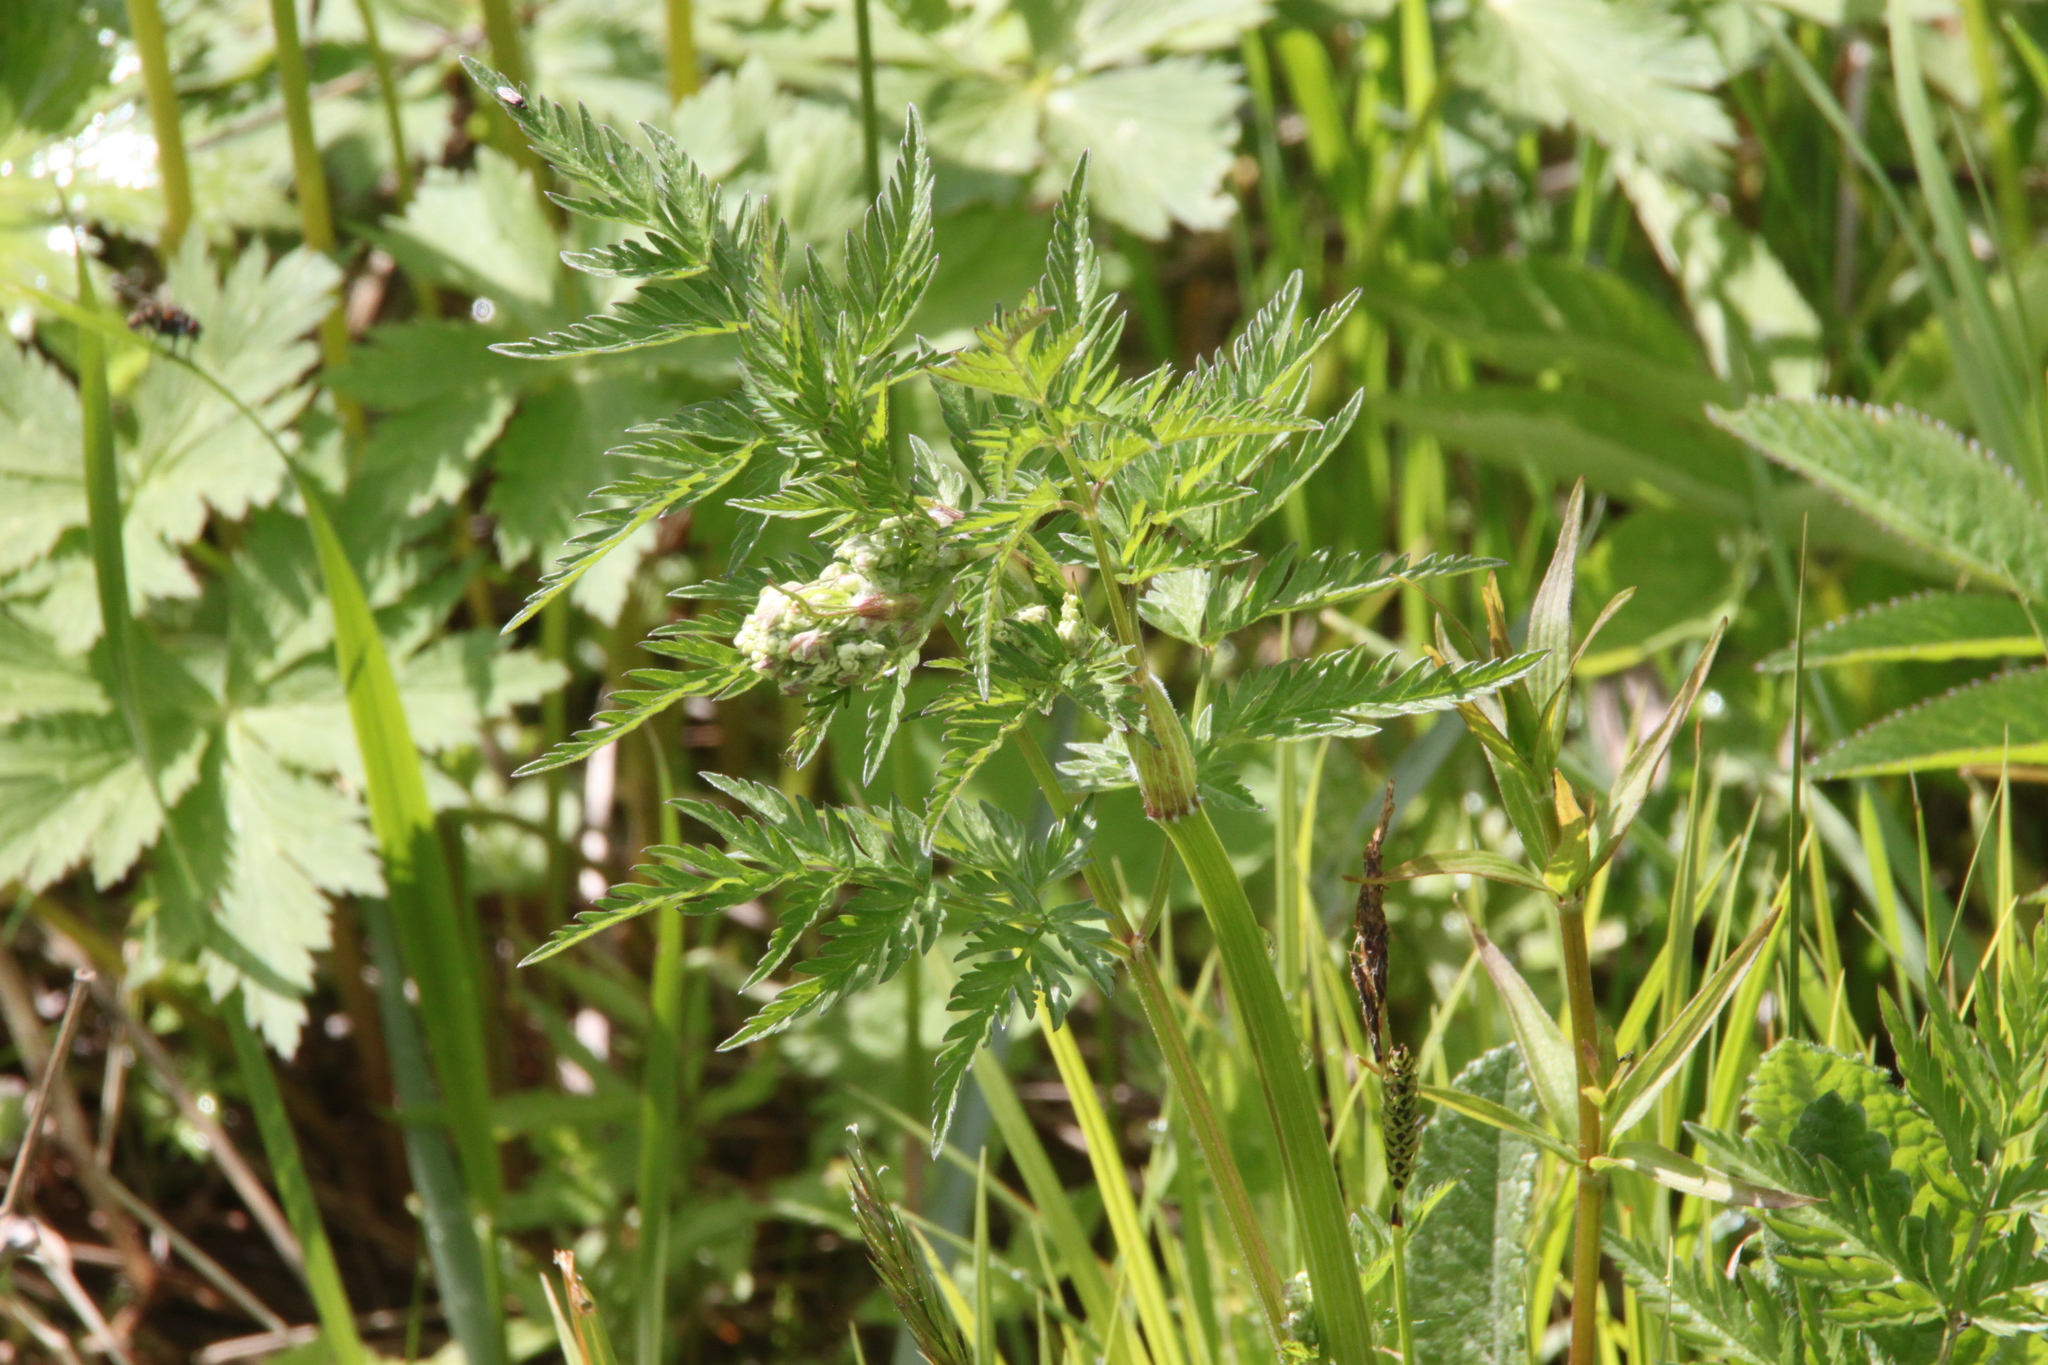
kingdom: Plantae
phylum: Tracheophyta
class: Magnoliopsida
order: Apiales
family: Apiaceae
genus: Anthriscus
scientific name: Anthriscus sylvestris
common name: Cow parsley
